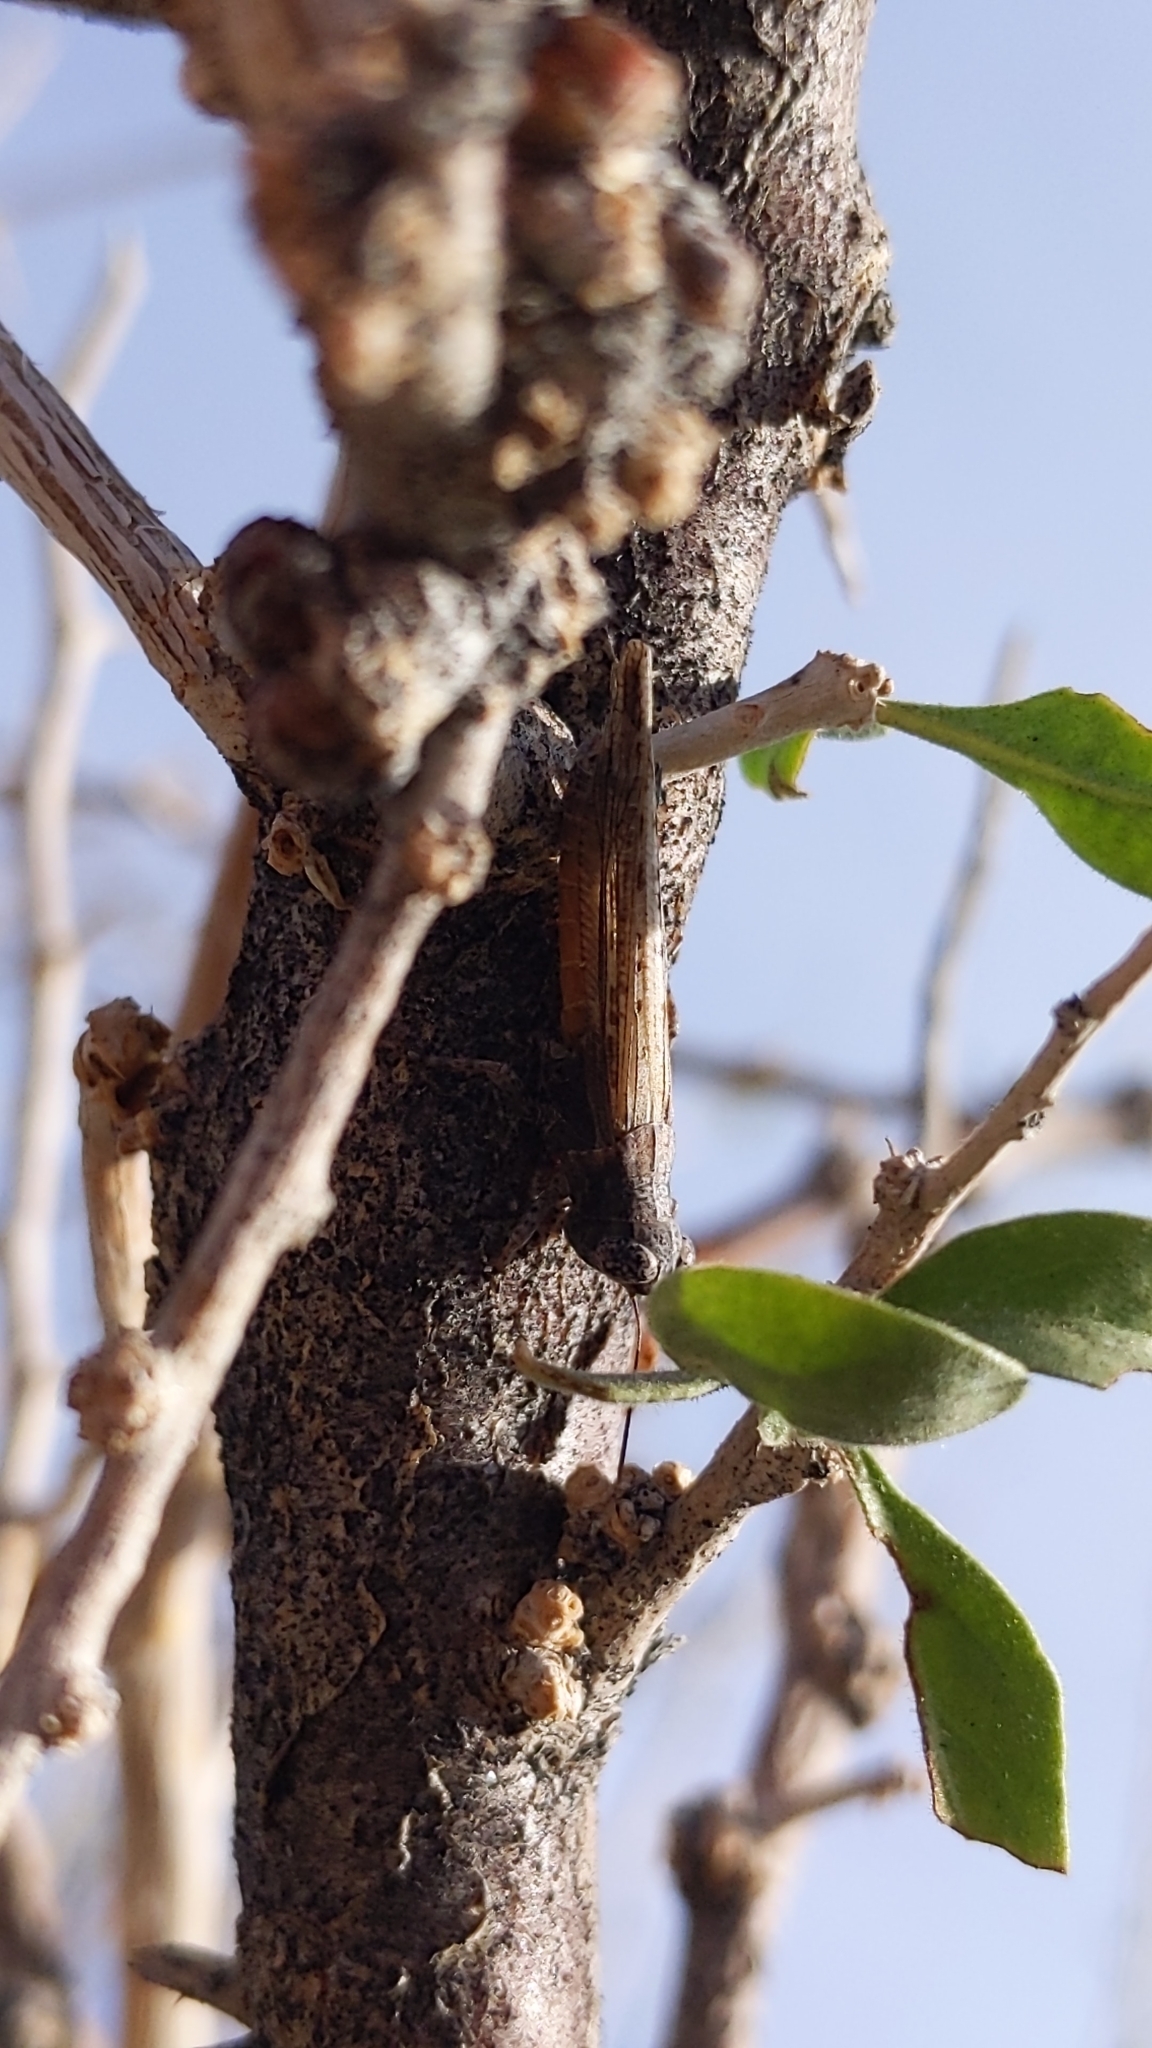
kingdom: Animalia
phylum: Arthropoda
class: Insecta
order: Orthoptera
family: Acrididae
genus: Ligurotettix
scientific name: Ligurotettix coquilletti
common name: Desert clicker grasshopper
